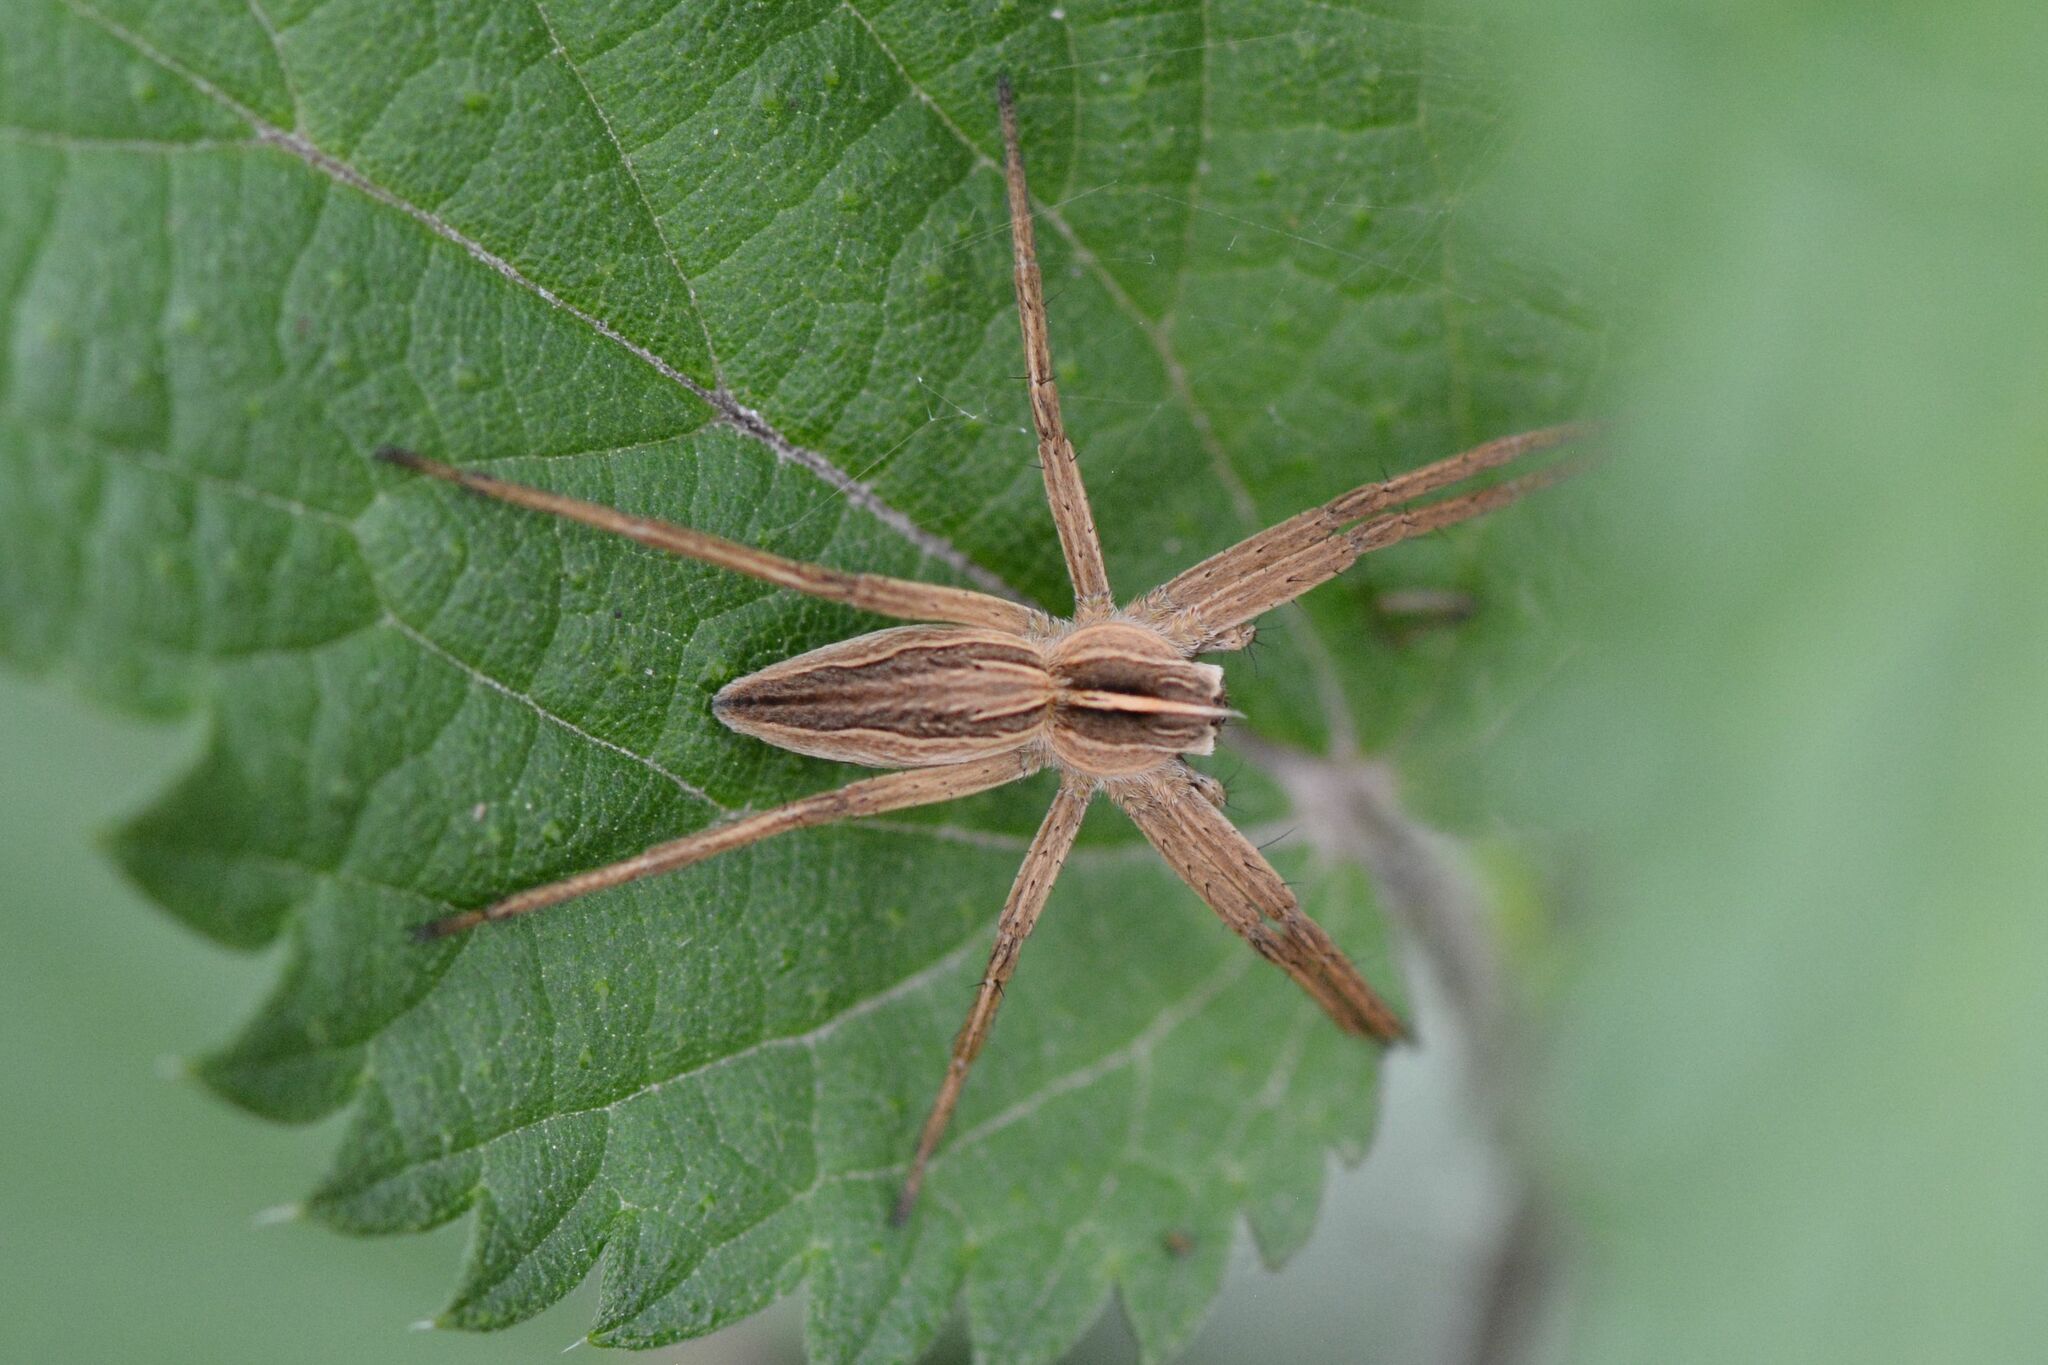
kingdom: Animalia
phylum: Arthropoda
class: Arachnida
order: Araneae
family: Pisauridae
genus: Pisaura
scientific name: Pisaura mirabilis
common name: Tent spider
